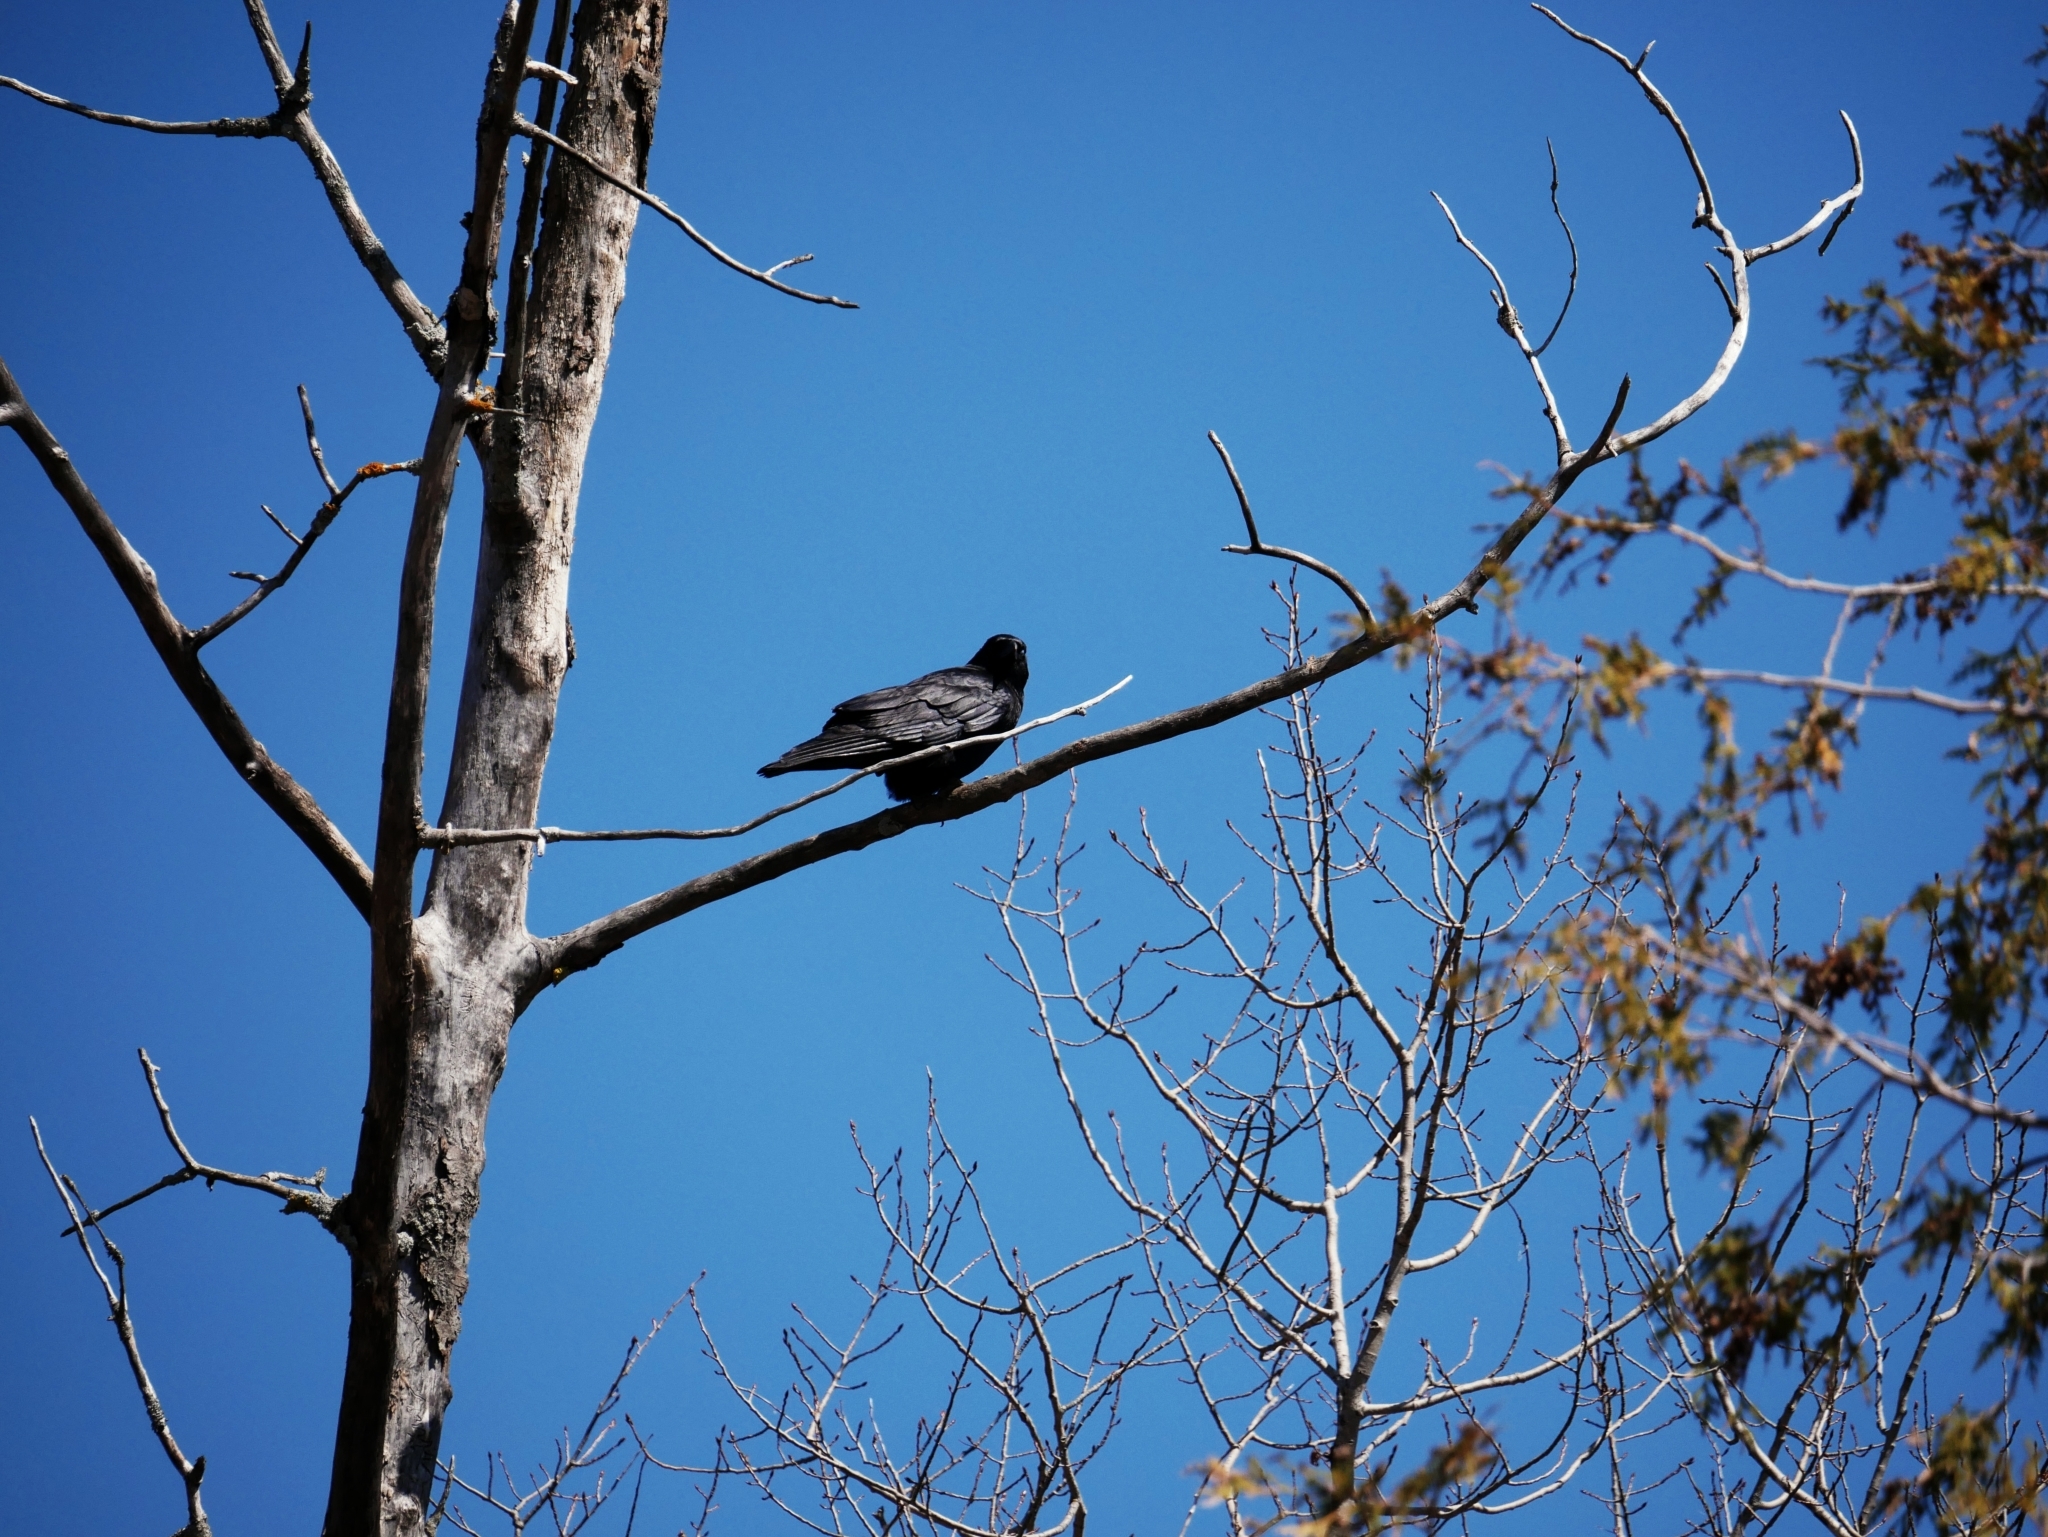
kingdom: Animalia
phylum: Chordata
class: Aves
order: Passeriformes
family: Corvidae
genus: Corvus
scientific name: Corvus brachyrhynchos
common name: American crow
